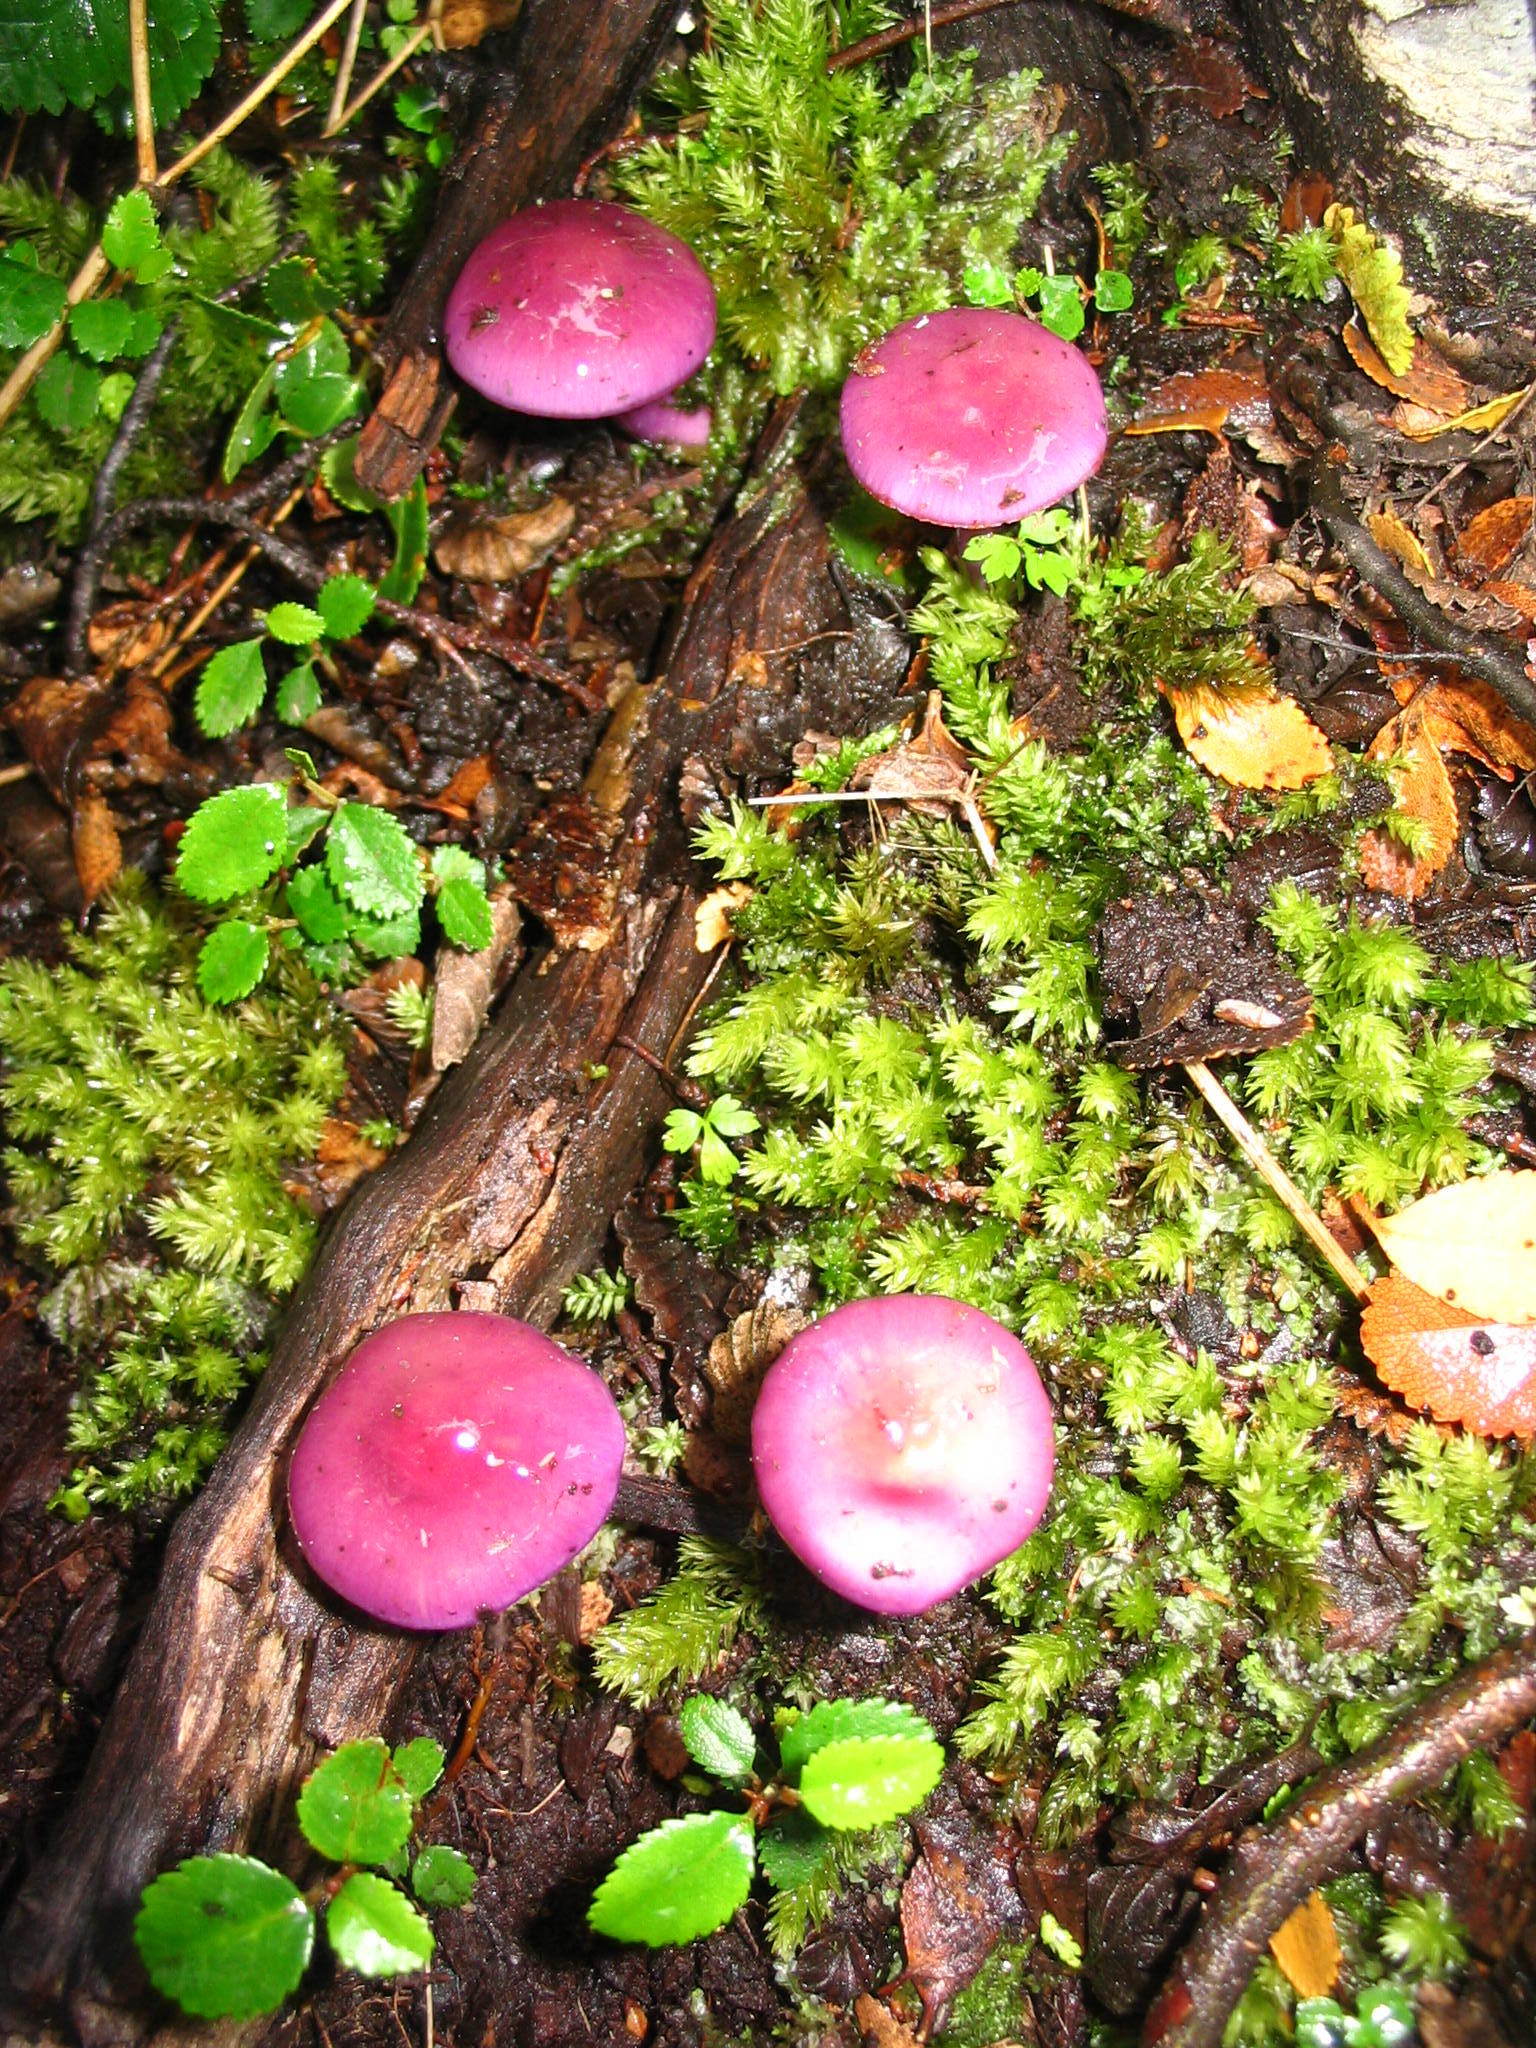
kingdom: Fungi
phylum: Basidiomycota
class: Agaricomycetes
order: Agaricales
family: Cortinariaceae
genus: Cortinarius
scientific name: Cortinarius magellanicus
